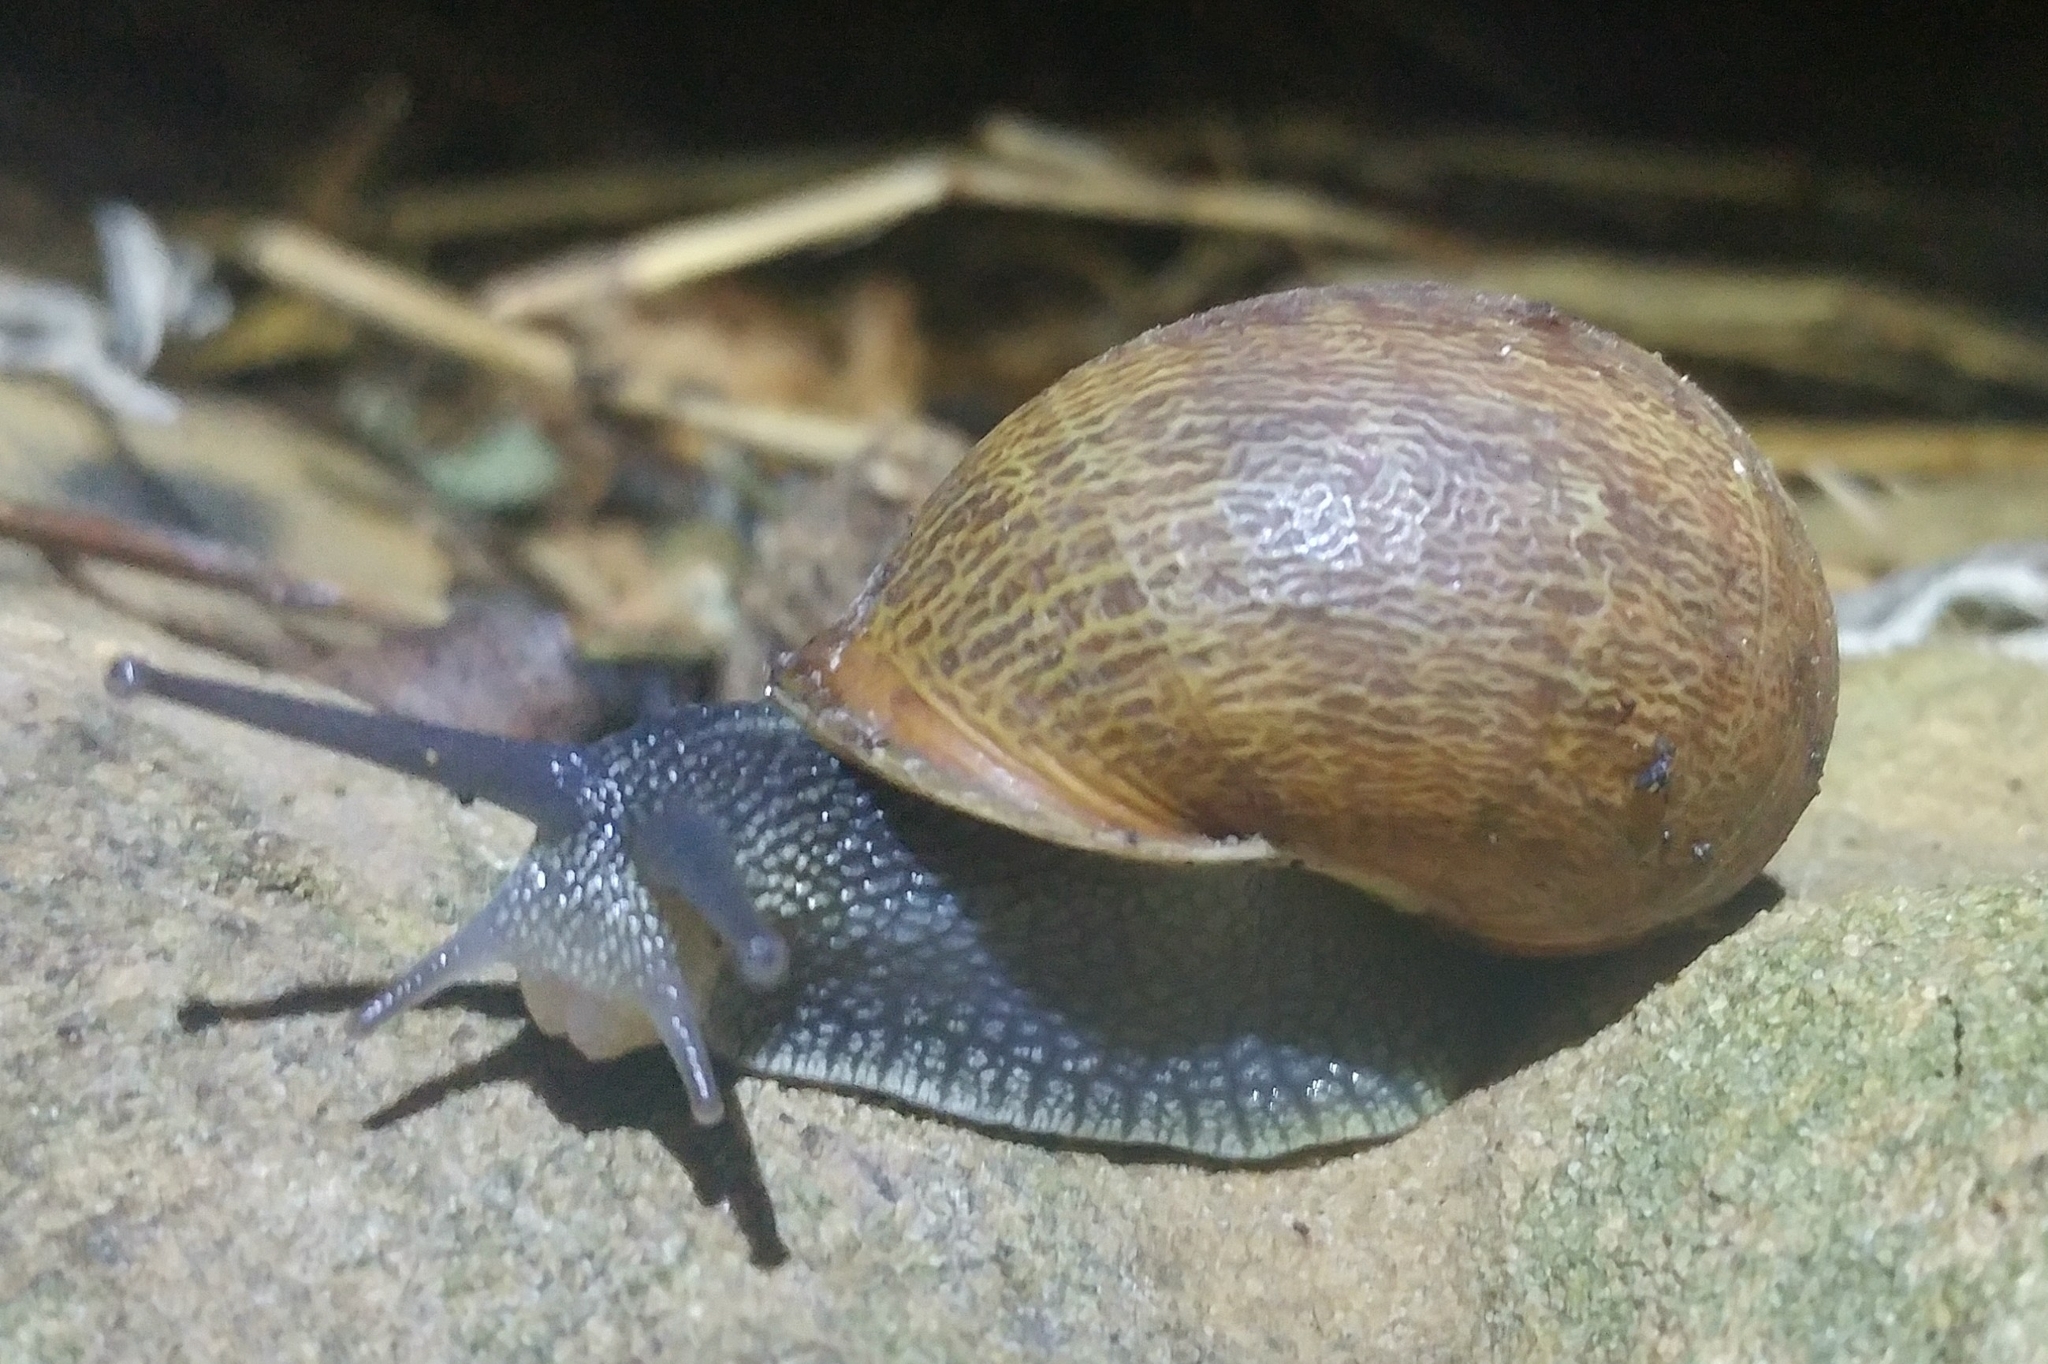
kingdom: Animalia
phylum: Mollusca
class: Gastropoda
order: Stylommatophora
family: Helicidae
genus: Cornu
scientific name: Cornu aspersum
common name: Brown garden snail
